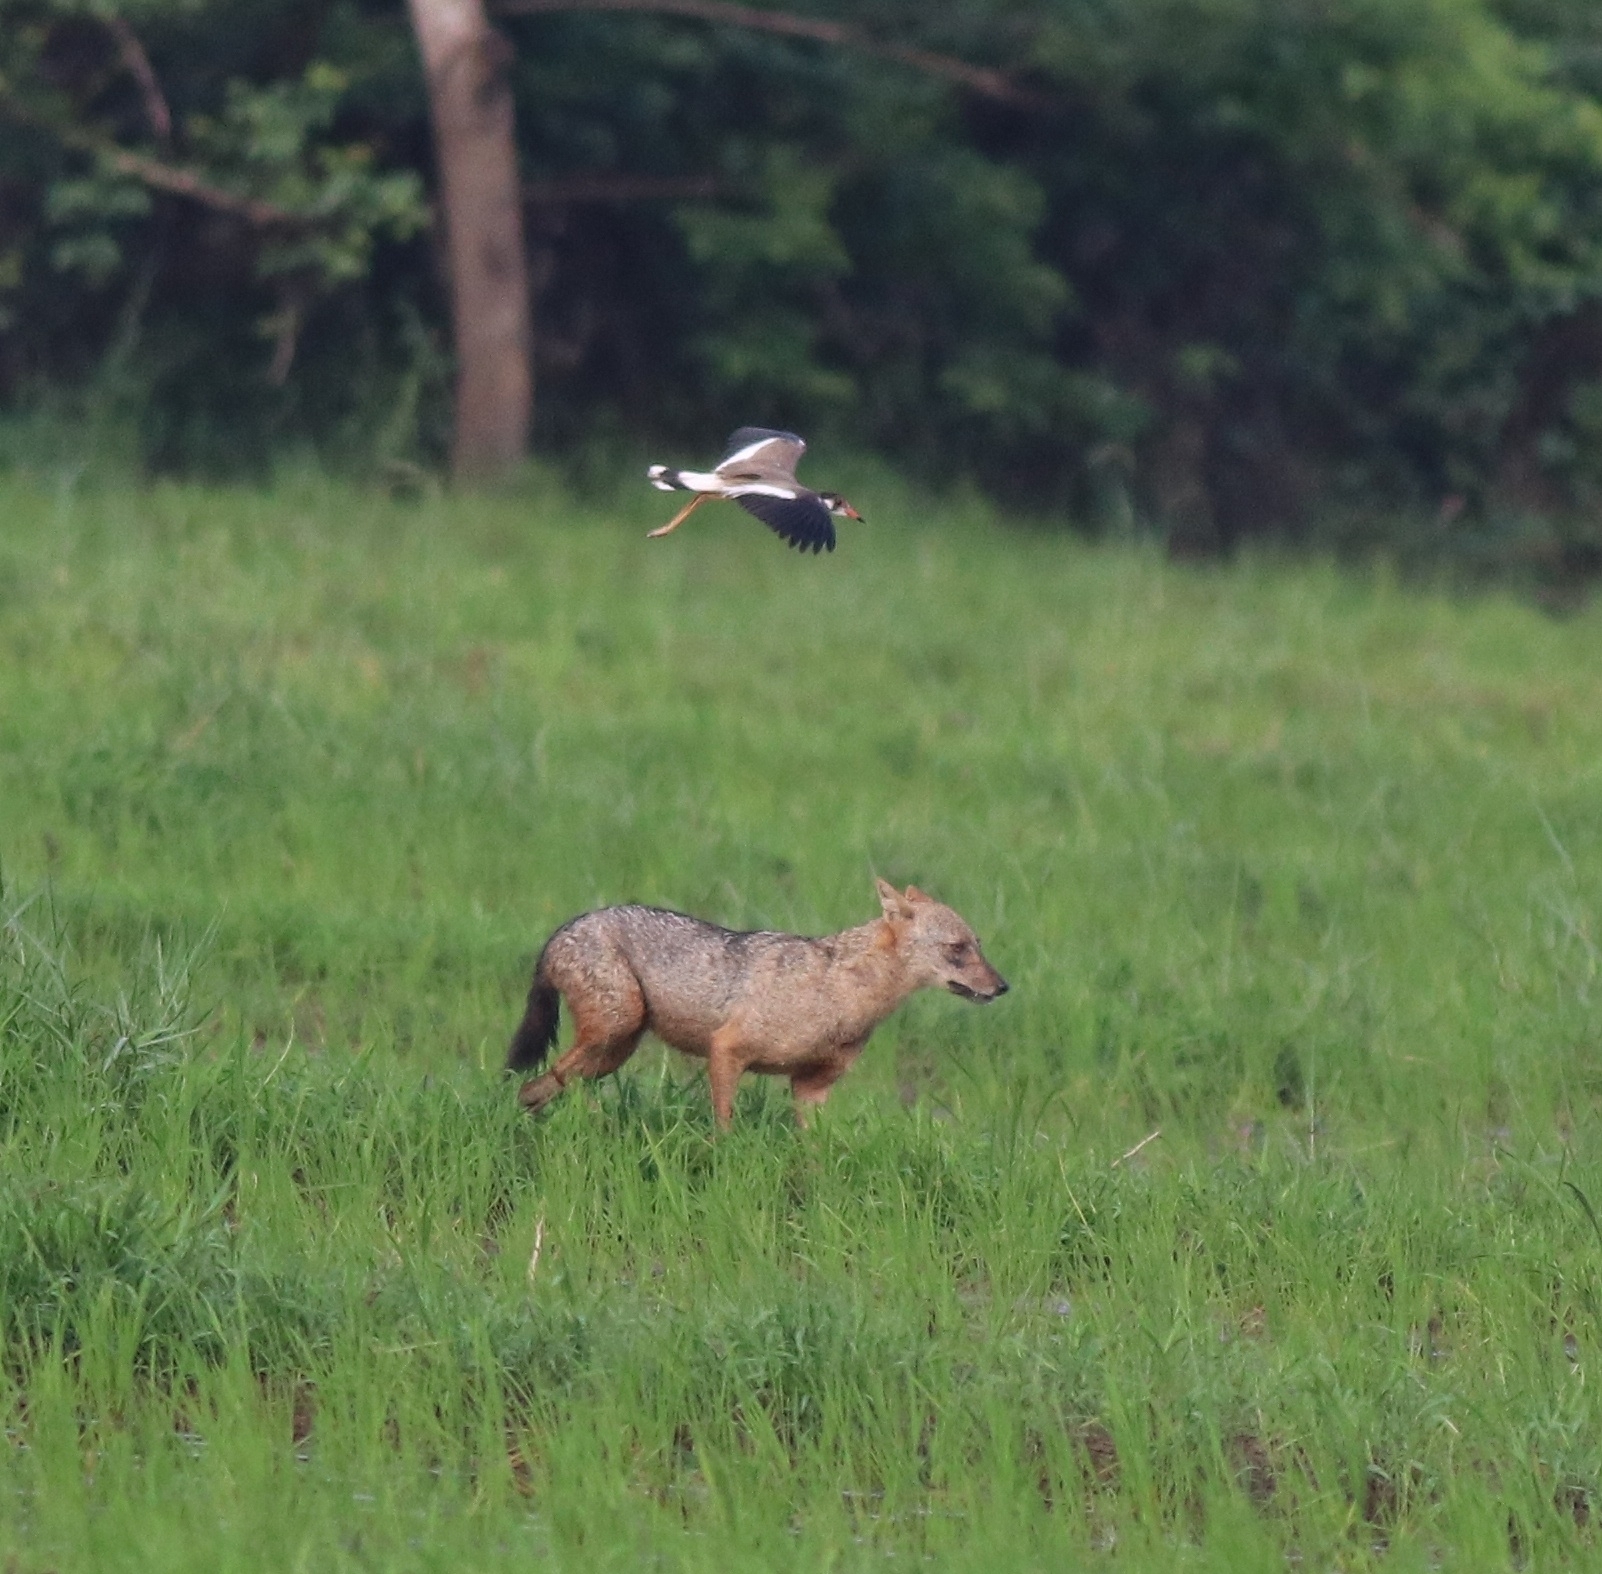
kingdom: Animalia
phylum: Chordata
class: Aves
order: Charadriiformes
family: Charadriidae
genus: Vanellus
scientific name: Vanellus indicus
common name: Red-wattled lapwing
